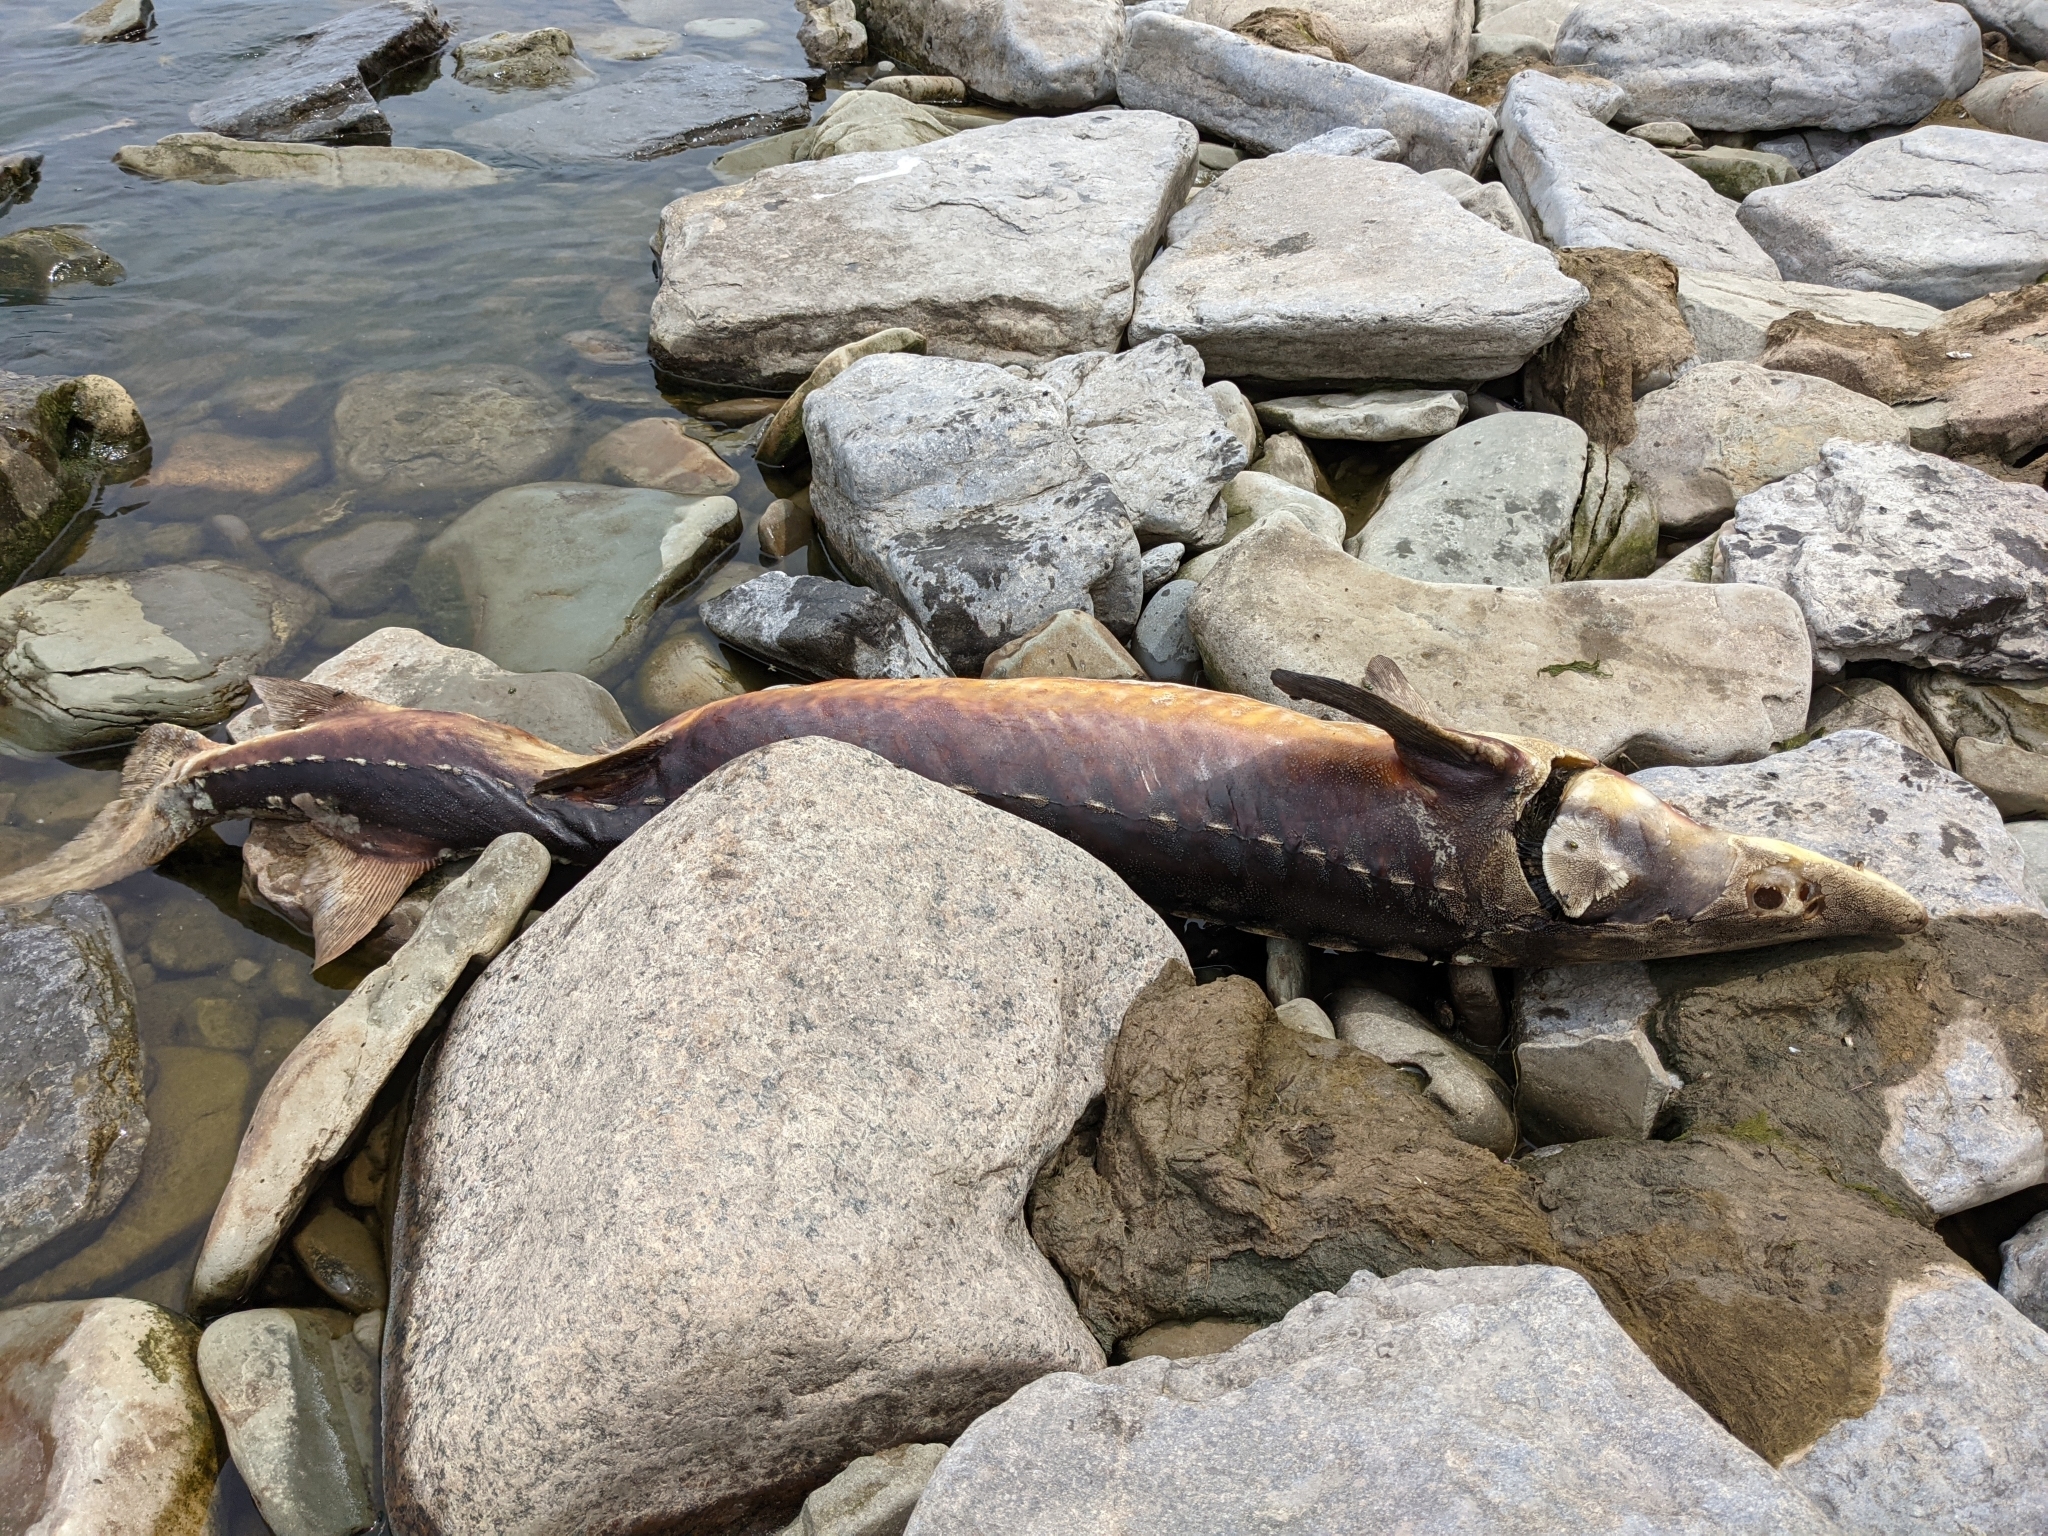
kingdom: Animalia
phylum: Chordata
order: Acipenseriformes
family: Acipenseridae
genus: Acipenser
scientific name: Acipenser fulvescens
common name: Lake sturgeon
